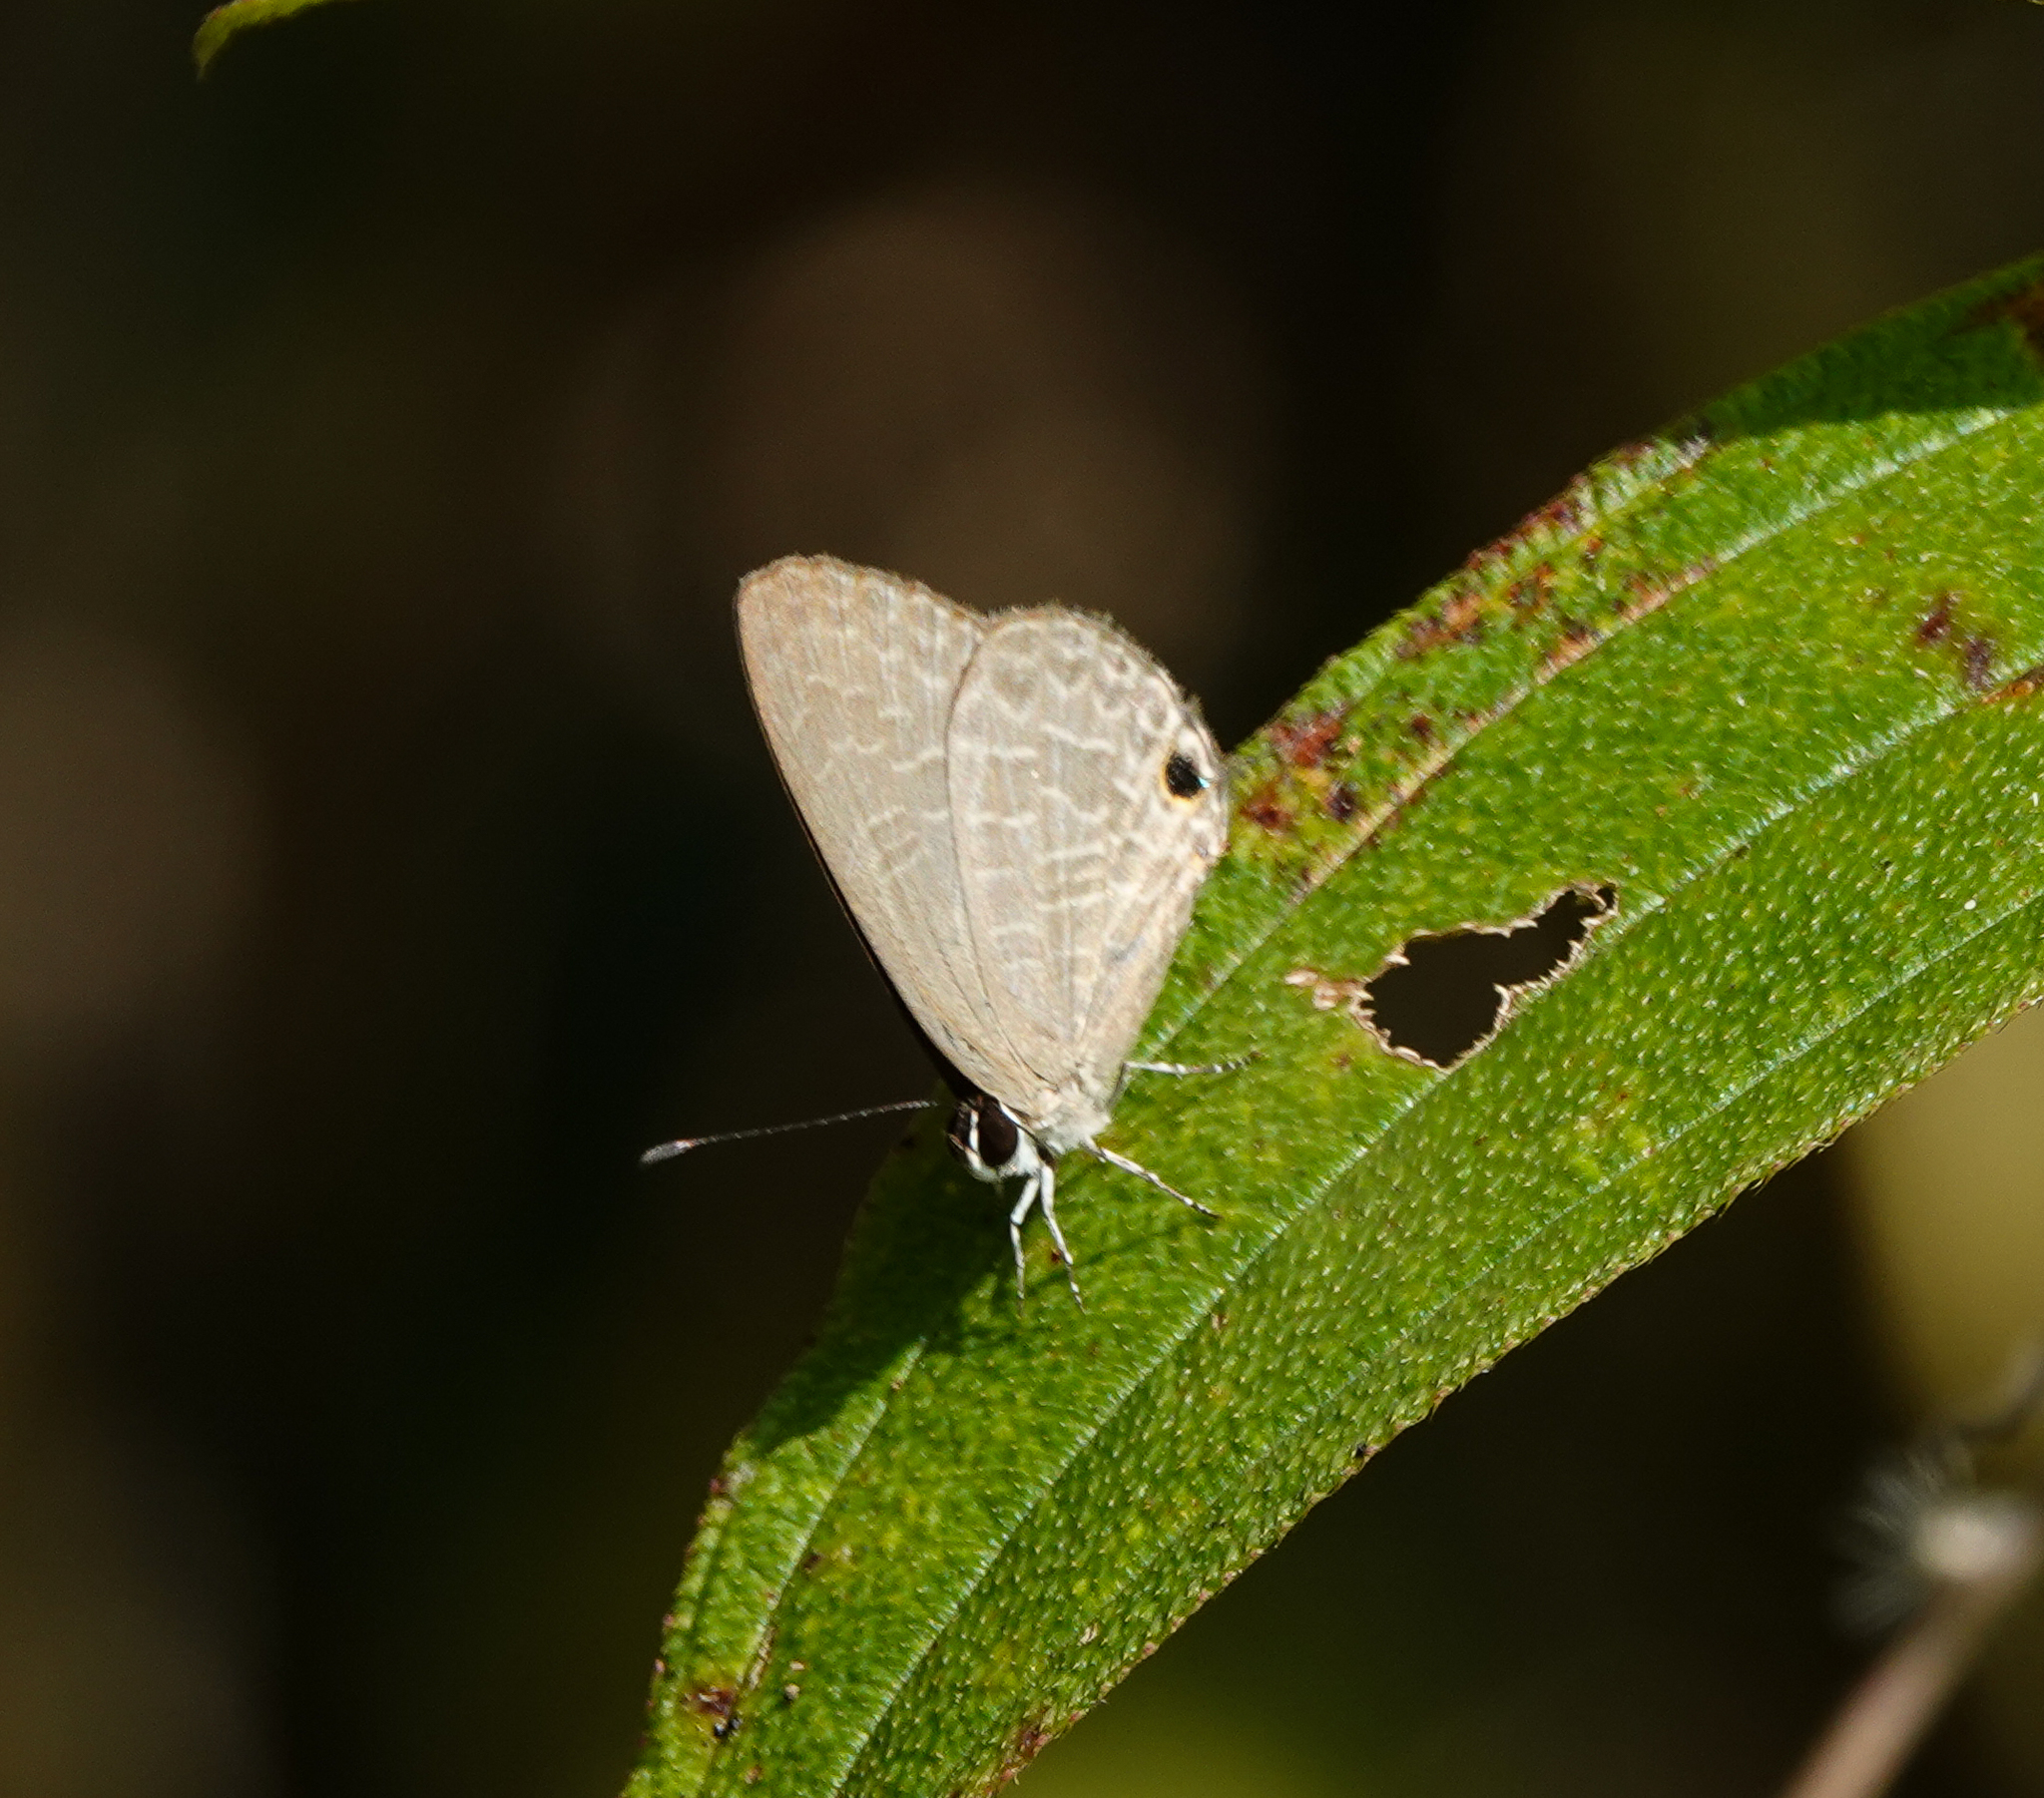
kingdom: Animalia
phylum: Arthropoda
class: Insecta
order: Lepidoptera
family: Lycaenidae
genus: Jamides
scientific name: Jamides bochus
